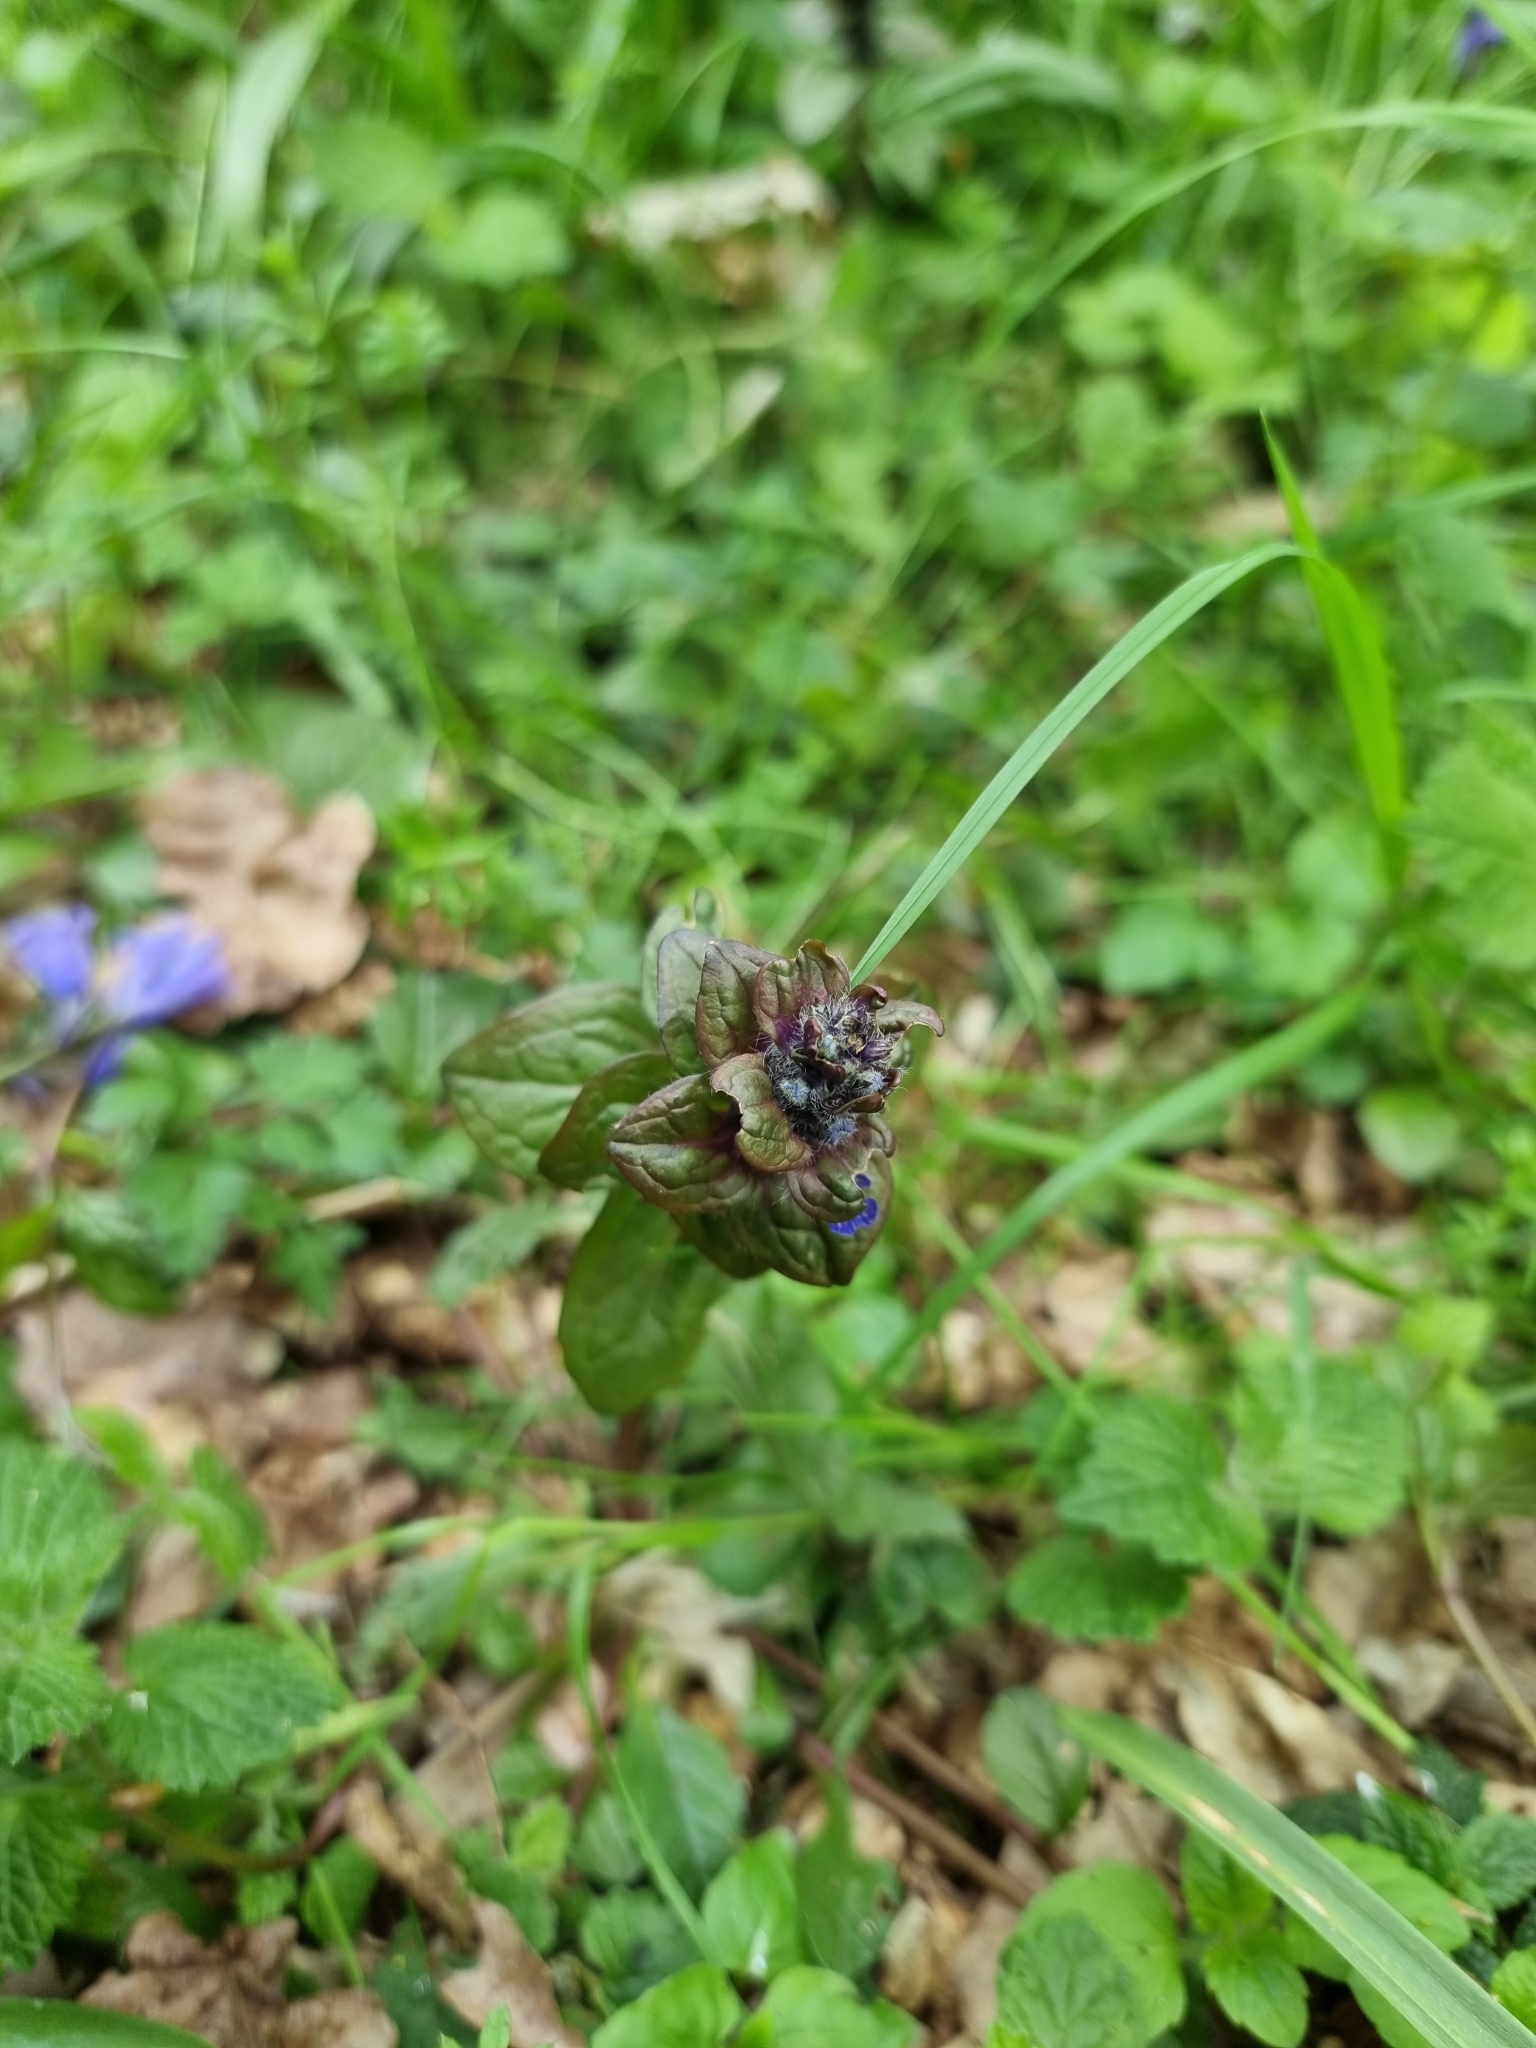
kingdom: Plantae
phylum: Tracheophyta
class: Magnoliopsida
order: Lamiales
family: Lamiaceae
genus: Ajuga
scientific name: Ajuga reptans
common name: Bugle
